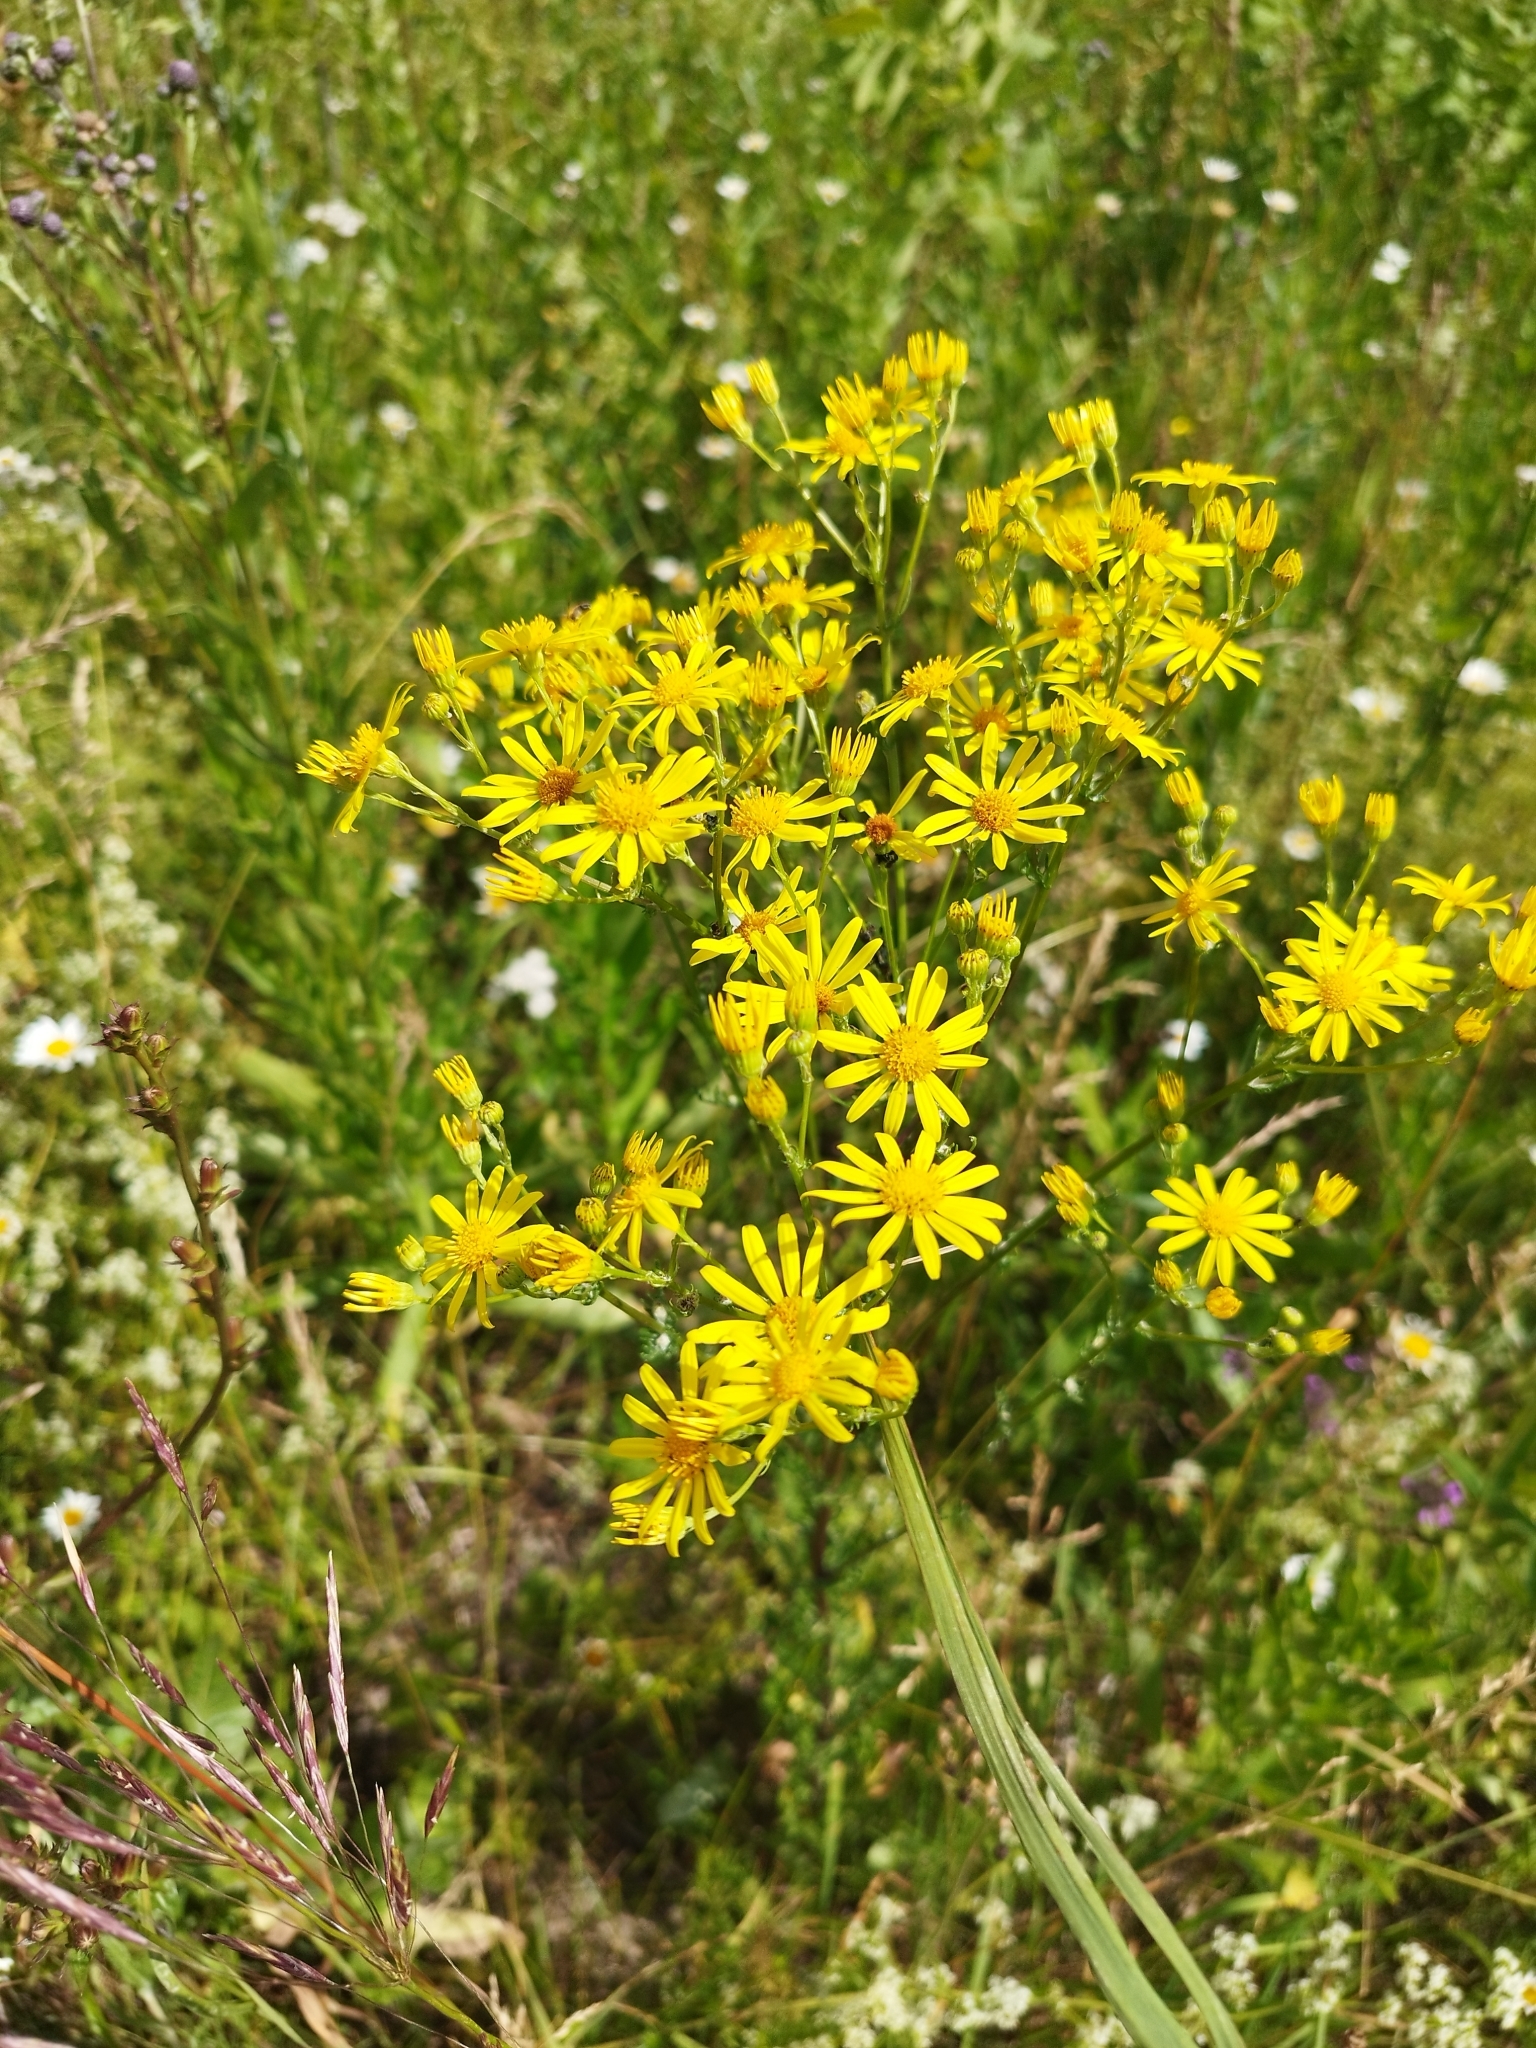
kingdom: Plantae
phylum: Tracheophyta
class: Magnoliopsida
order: Asterales
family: Asteraceae
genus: Jacobaea
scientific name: Jacobaea vulgaris
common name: Stinking willie
